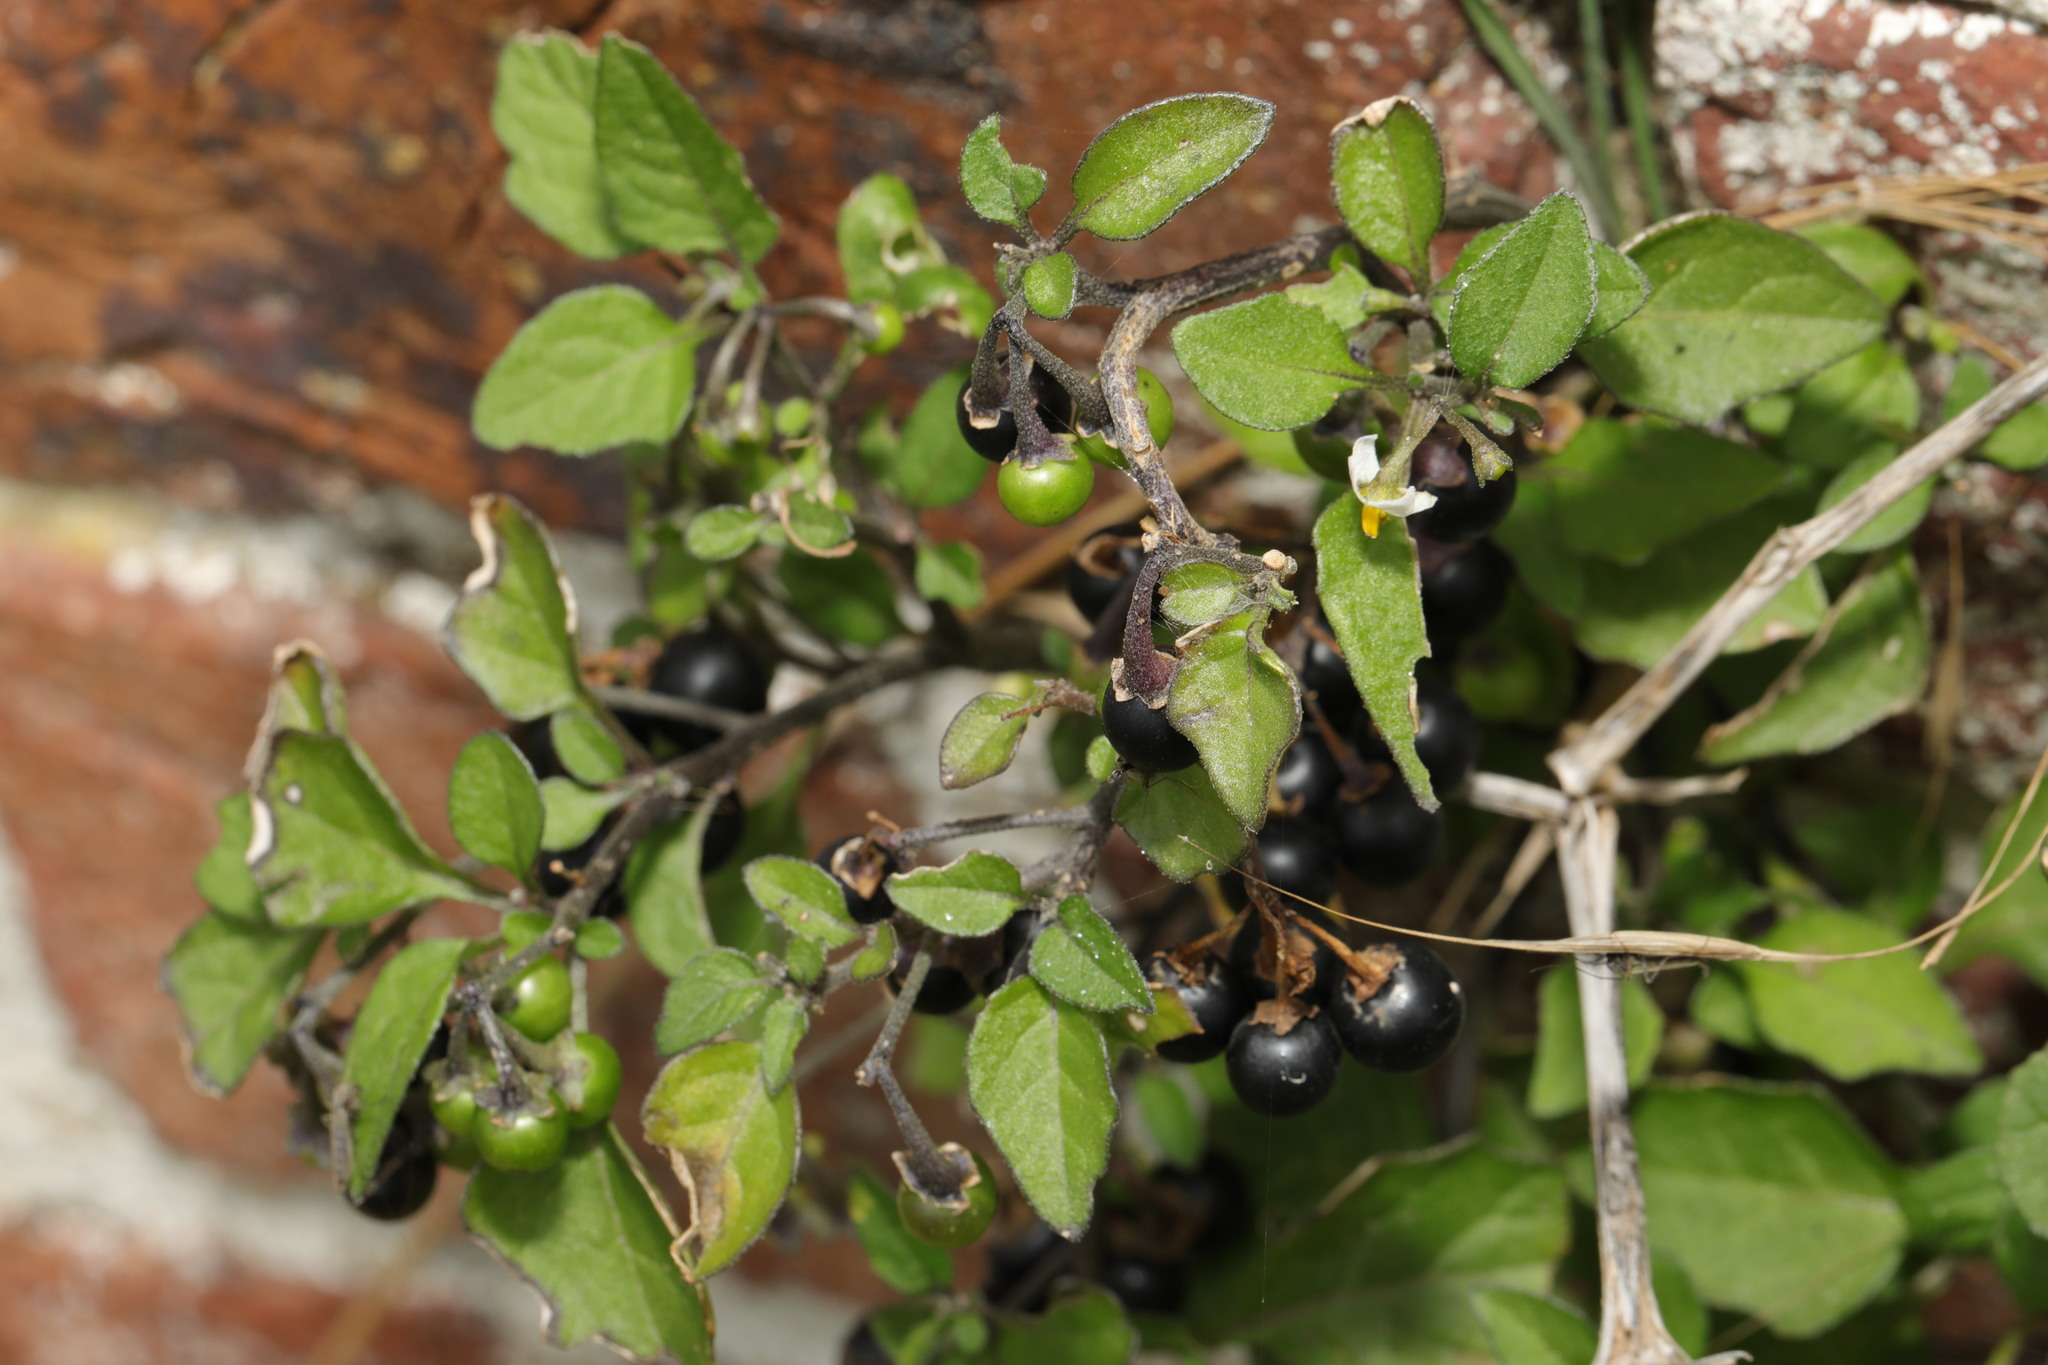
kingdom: Plantae
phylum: Tracheophyta
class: Magnoliopsida
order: Solanales
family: Solanaceae
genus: Solanum
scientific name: Solanum nigrum
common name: Black nightshade
